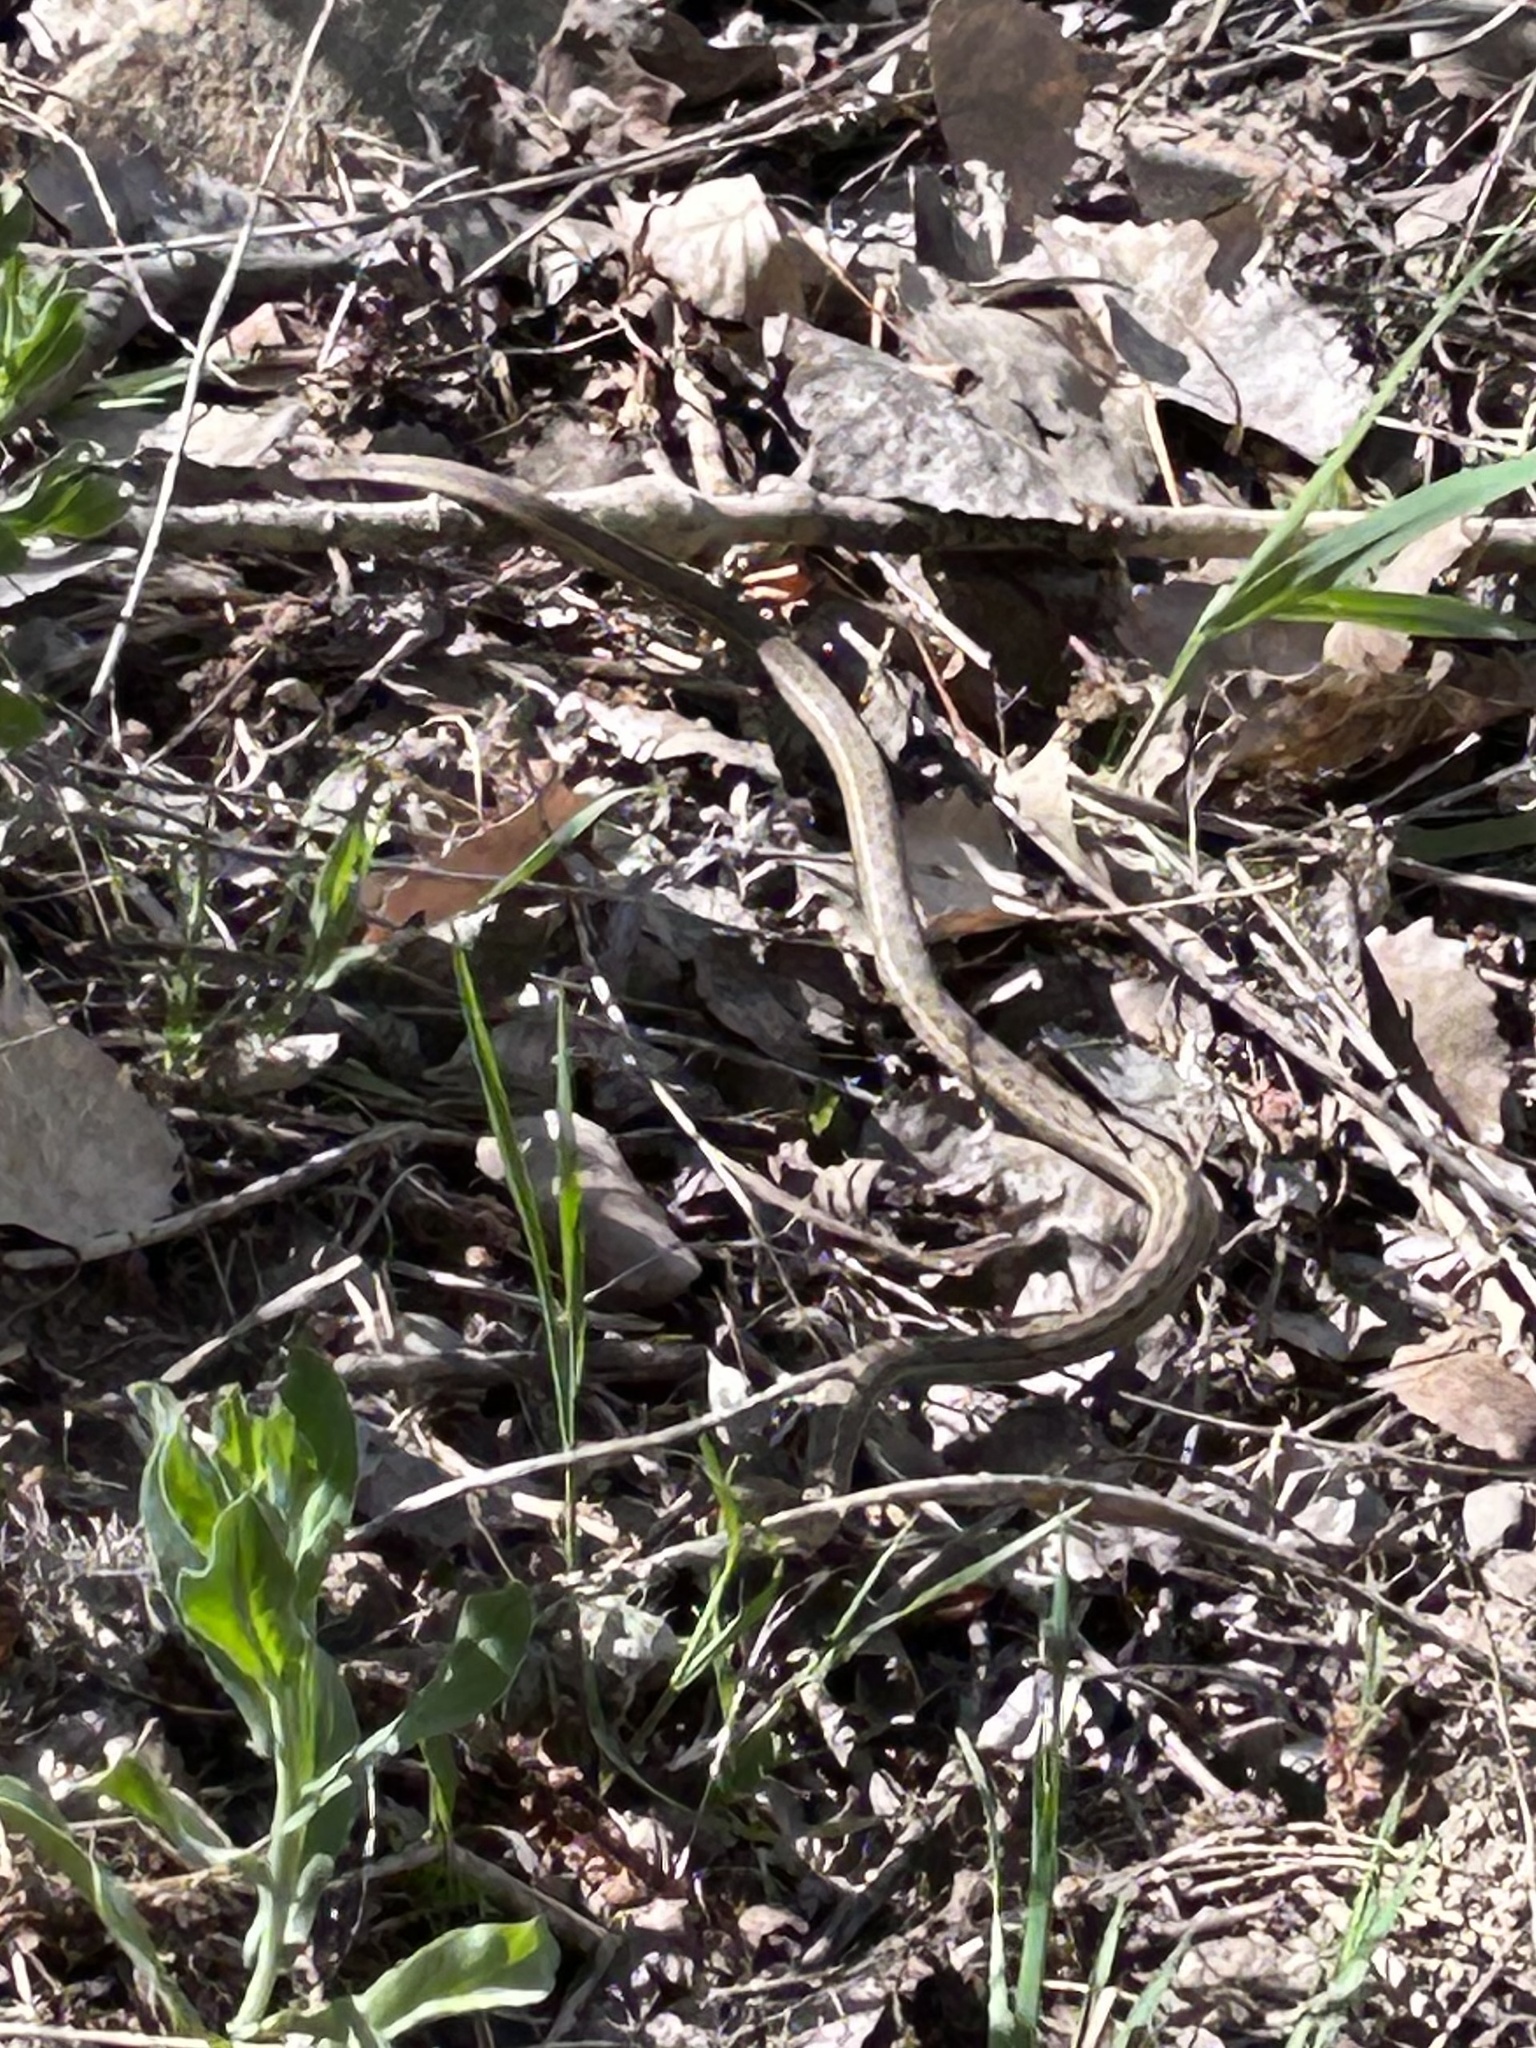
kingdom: Animalia
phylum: Chordata
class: Squamata
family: Colubridae
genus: Thamnophis
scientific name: Thamnophis elegans
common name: Western terrestrial garter snake
